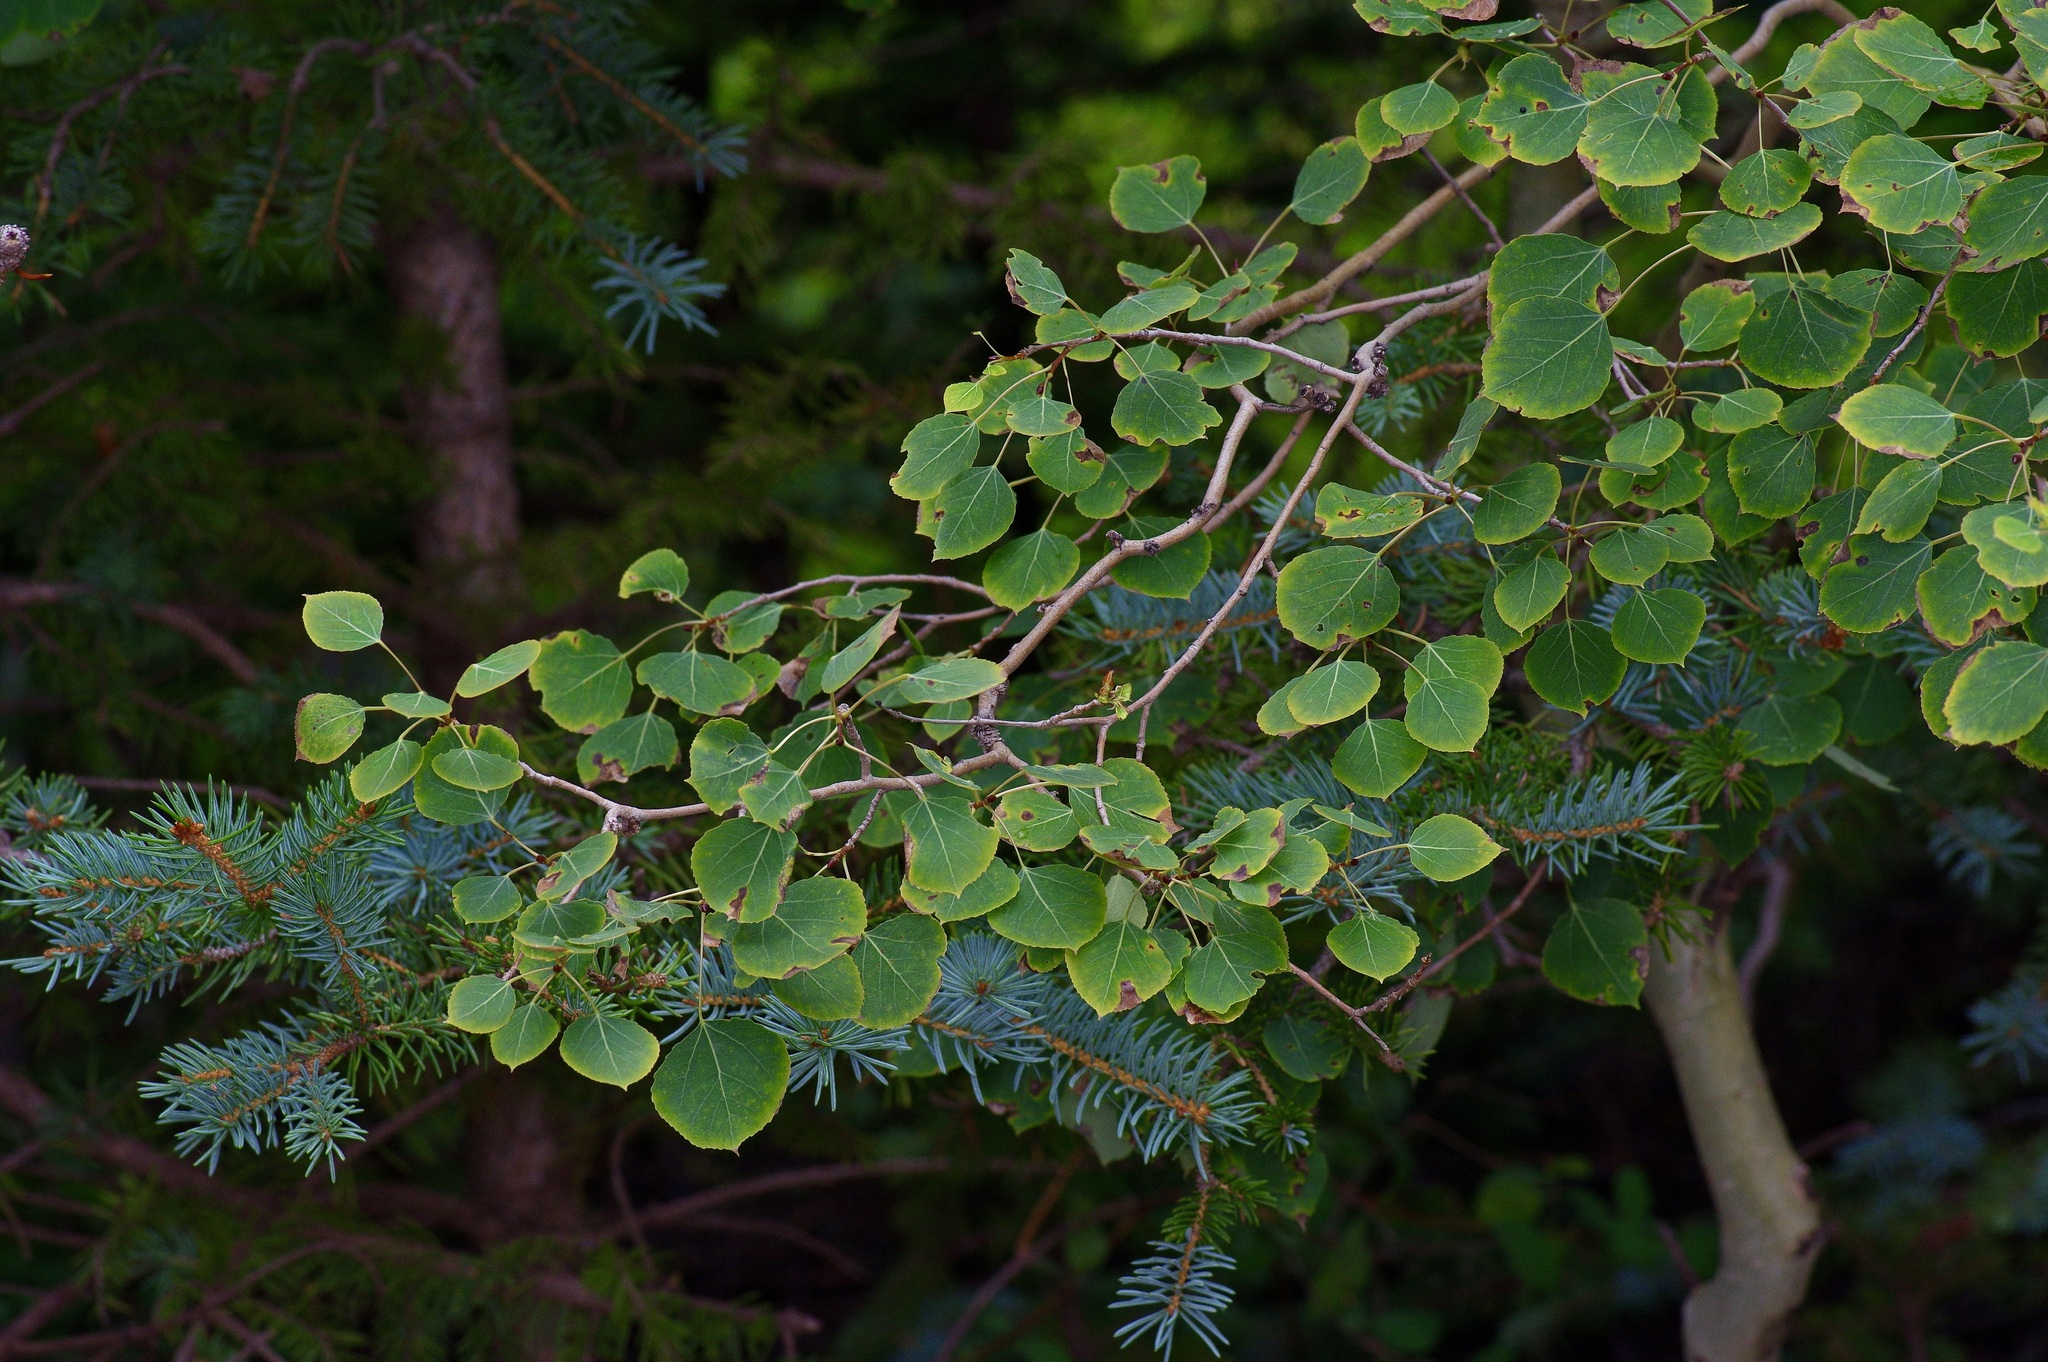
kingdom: Plantae
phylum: Tracheophyta
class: Magnoliopsida
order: Malpighiales
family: Salicaceae
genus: Populus
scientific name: Populus tremuloides
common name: Quaking aspen
